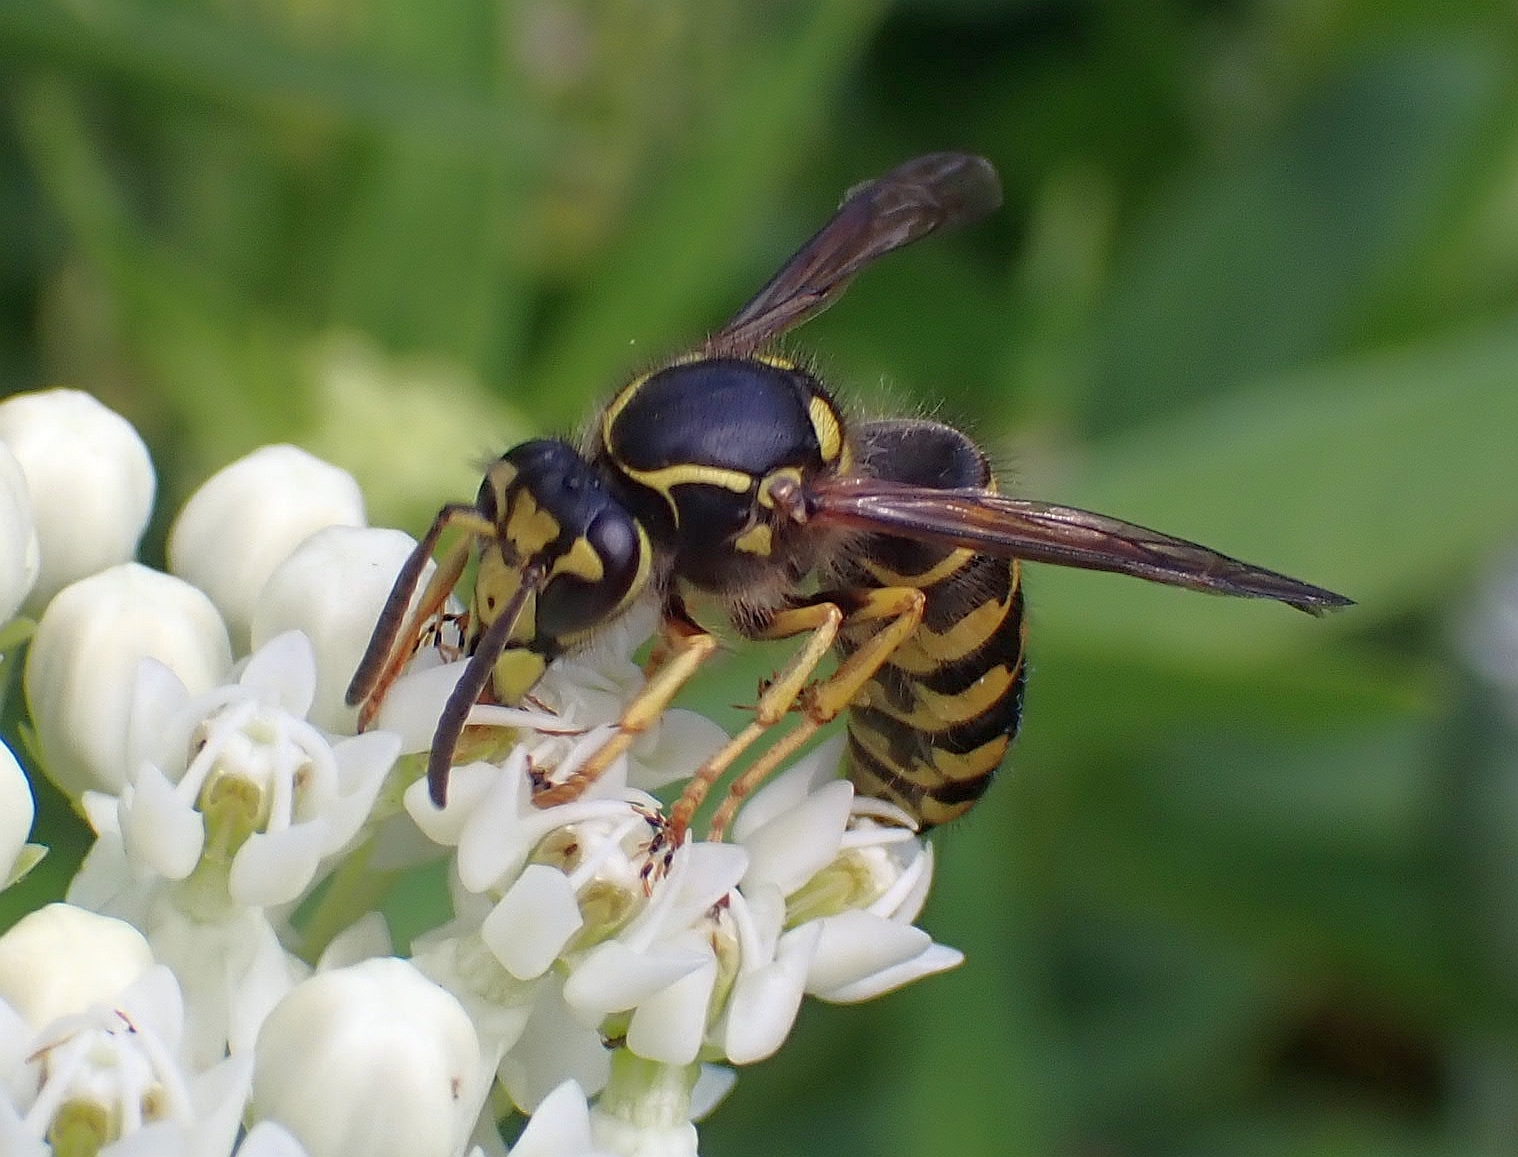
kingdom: Animalia
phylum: Arthropoda
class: Insecta
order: Hymenoptera
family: Vespidae
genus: Dolichovespula
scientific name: Dolichovespula arenaria
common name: Aerial yellowjacket
